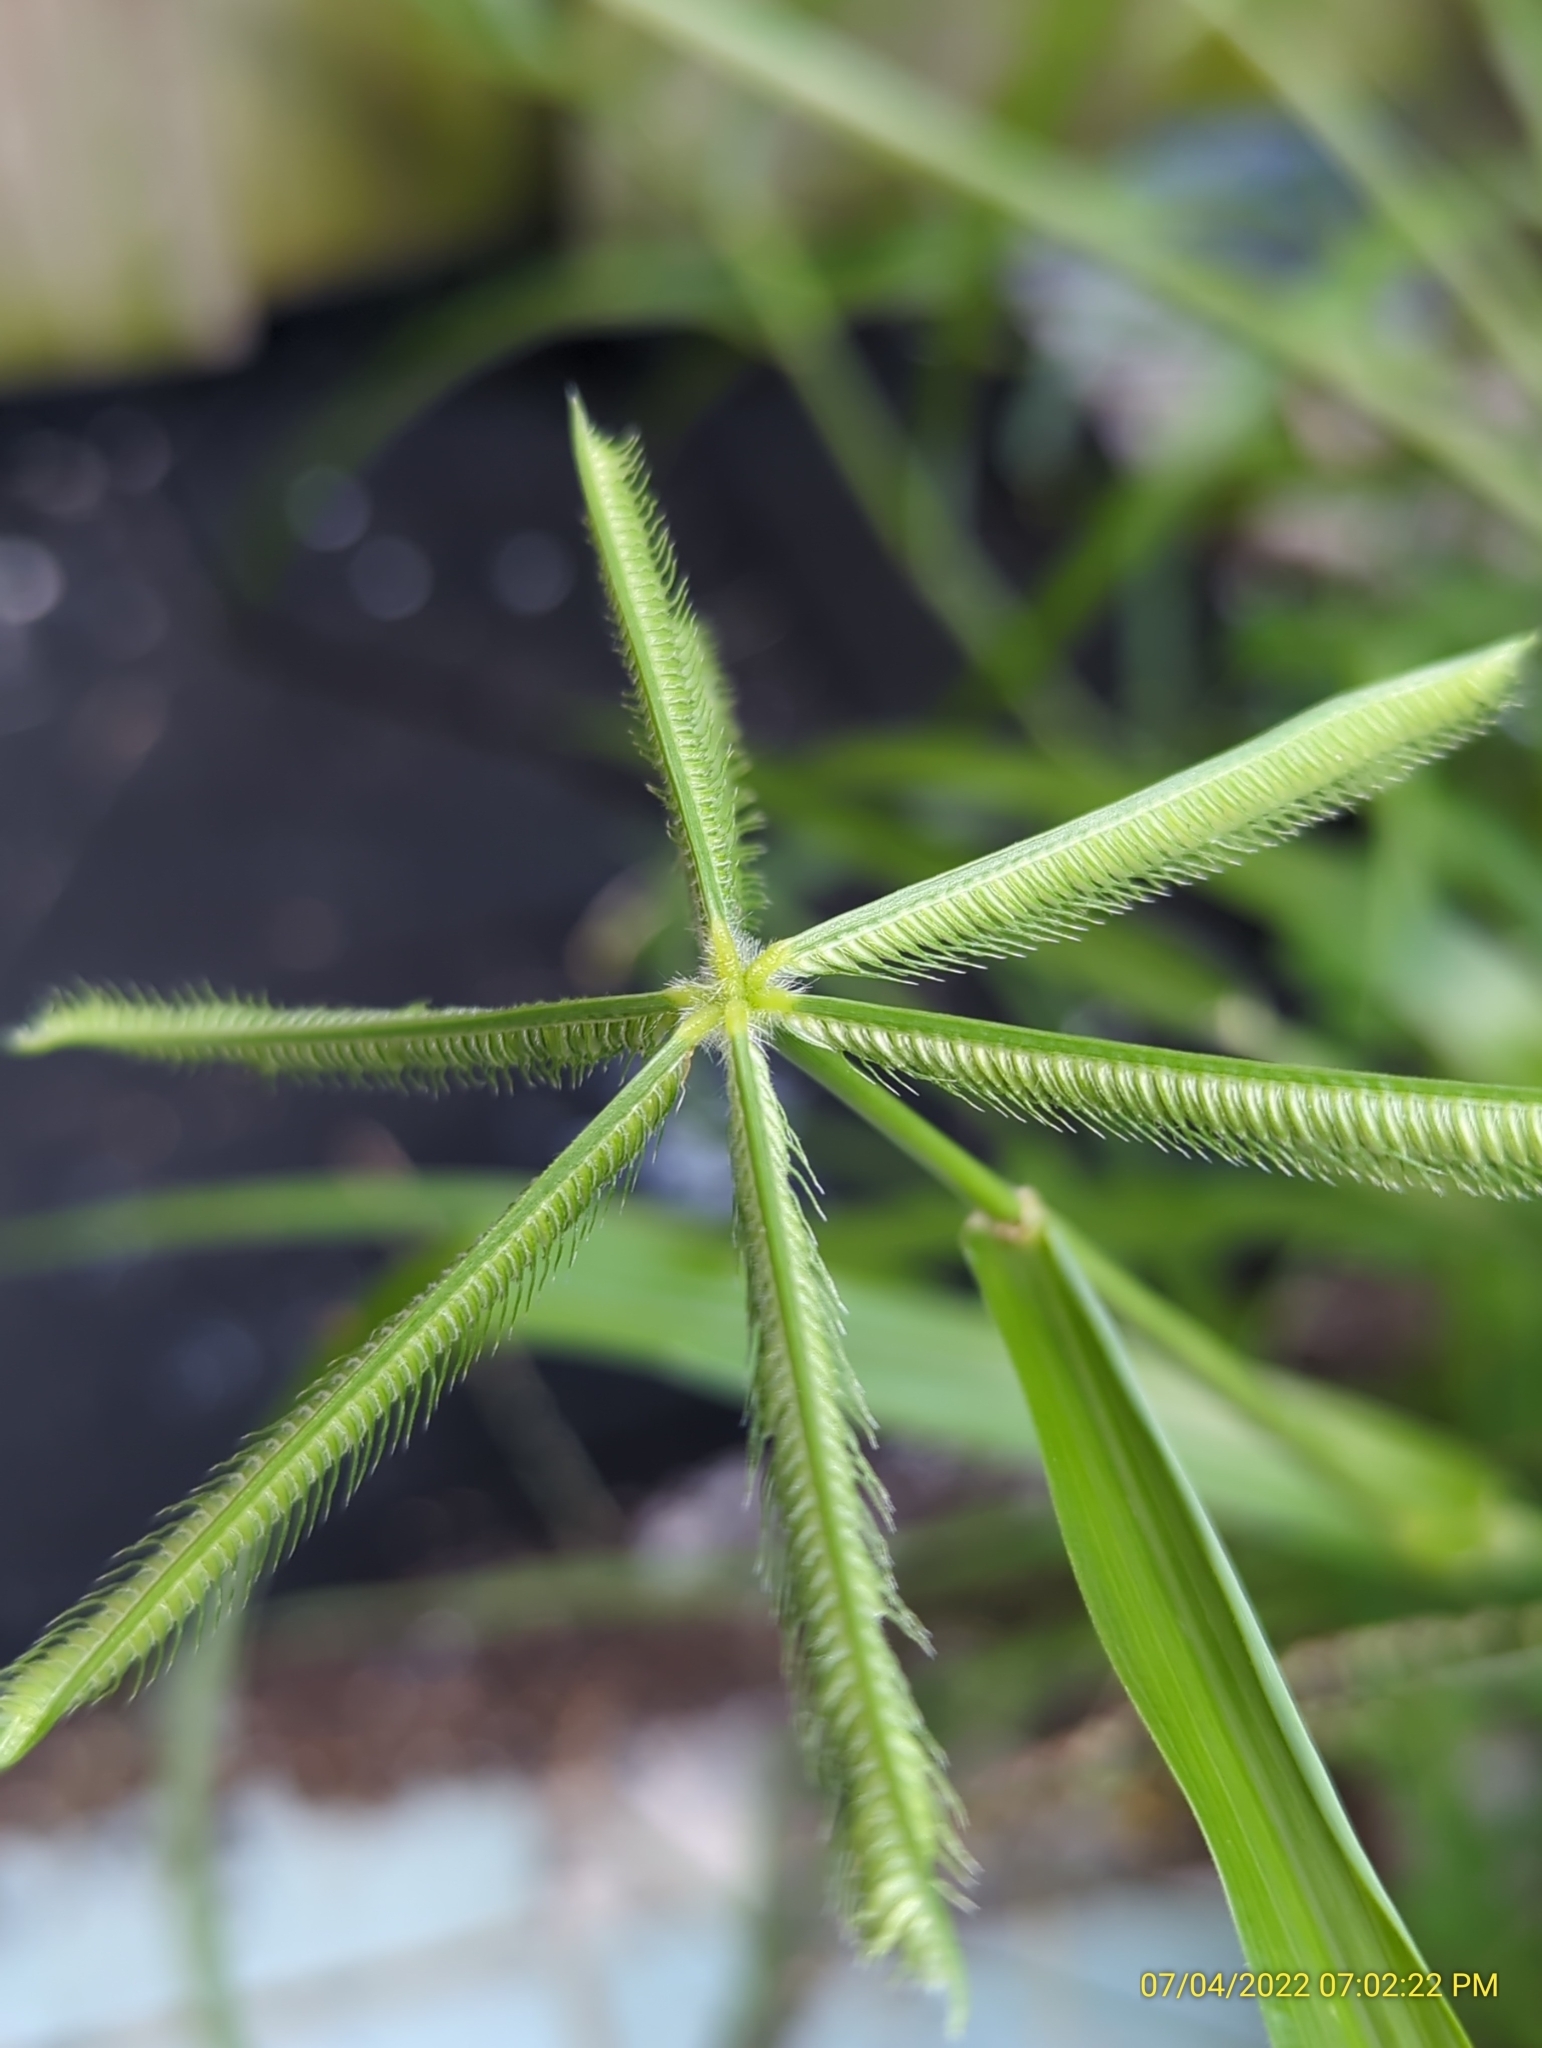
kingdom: Plantae
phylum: Tracheophyta
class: Liliopsida
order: Poales
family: Poaceae
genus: Dactyloctenium
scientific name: Dactyloctenium aegyptium
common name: Egyptian grass
